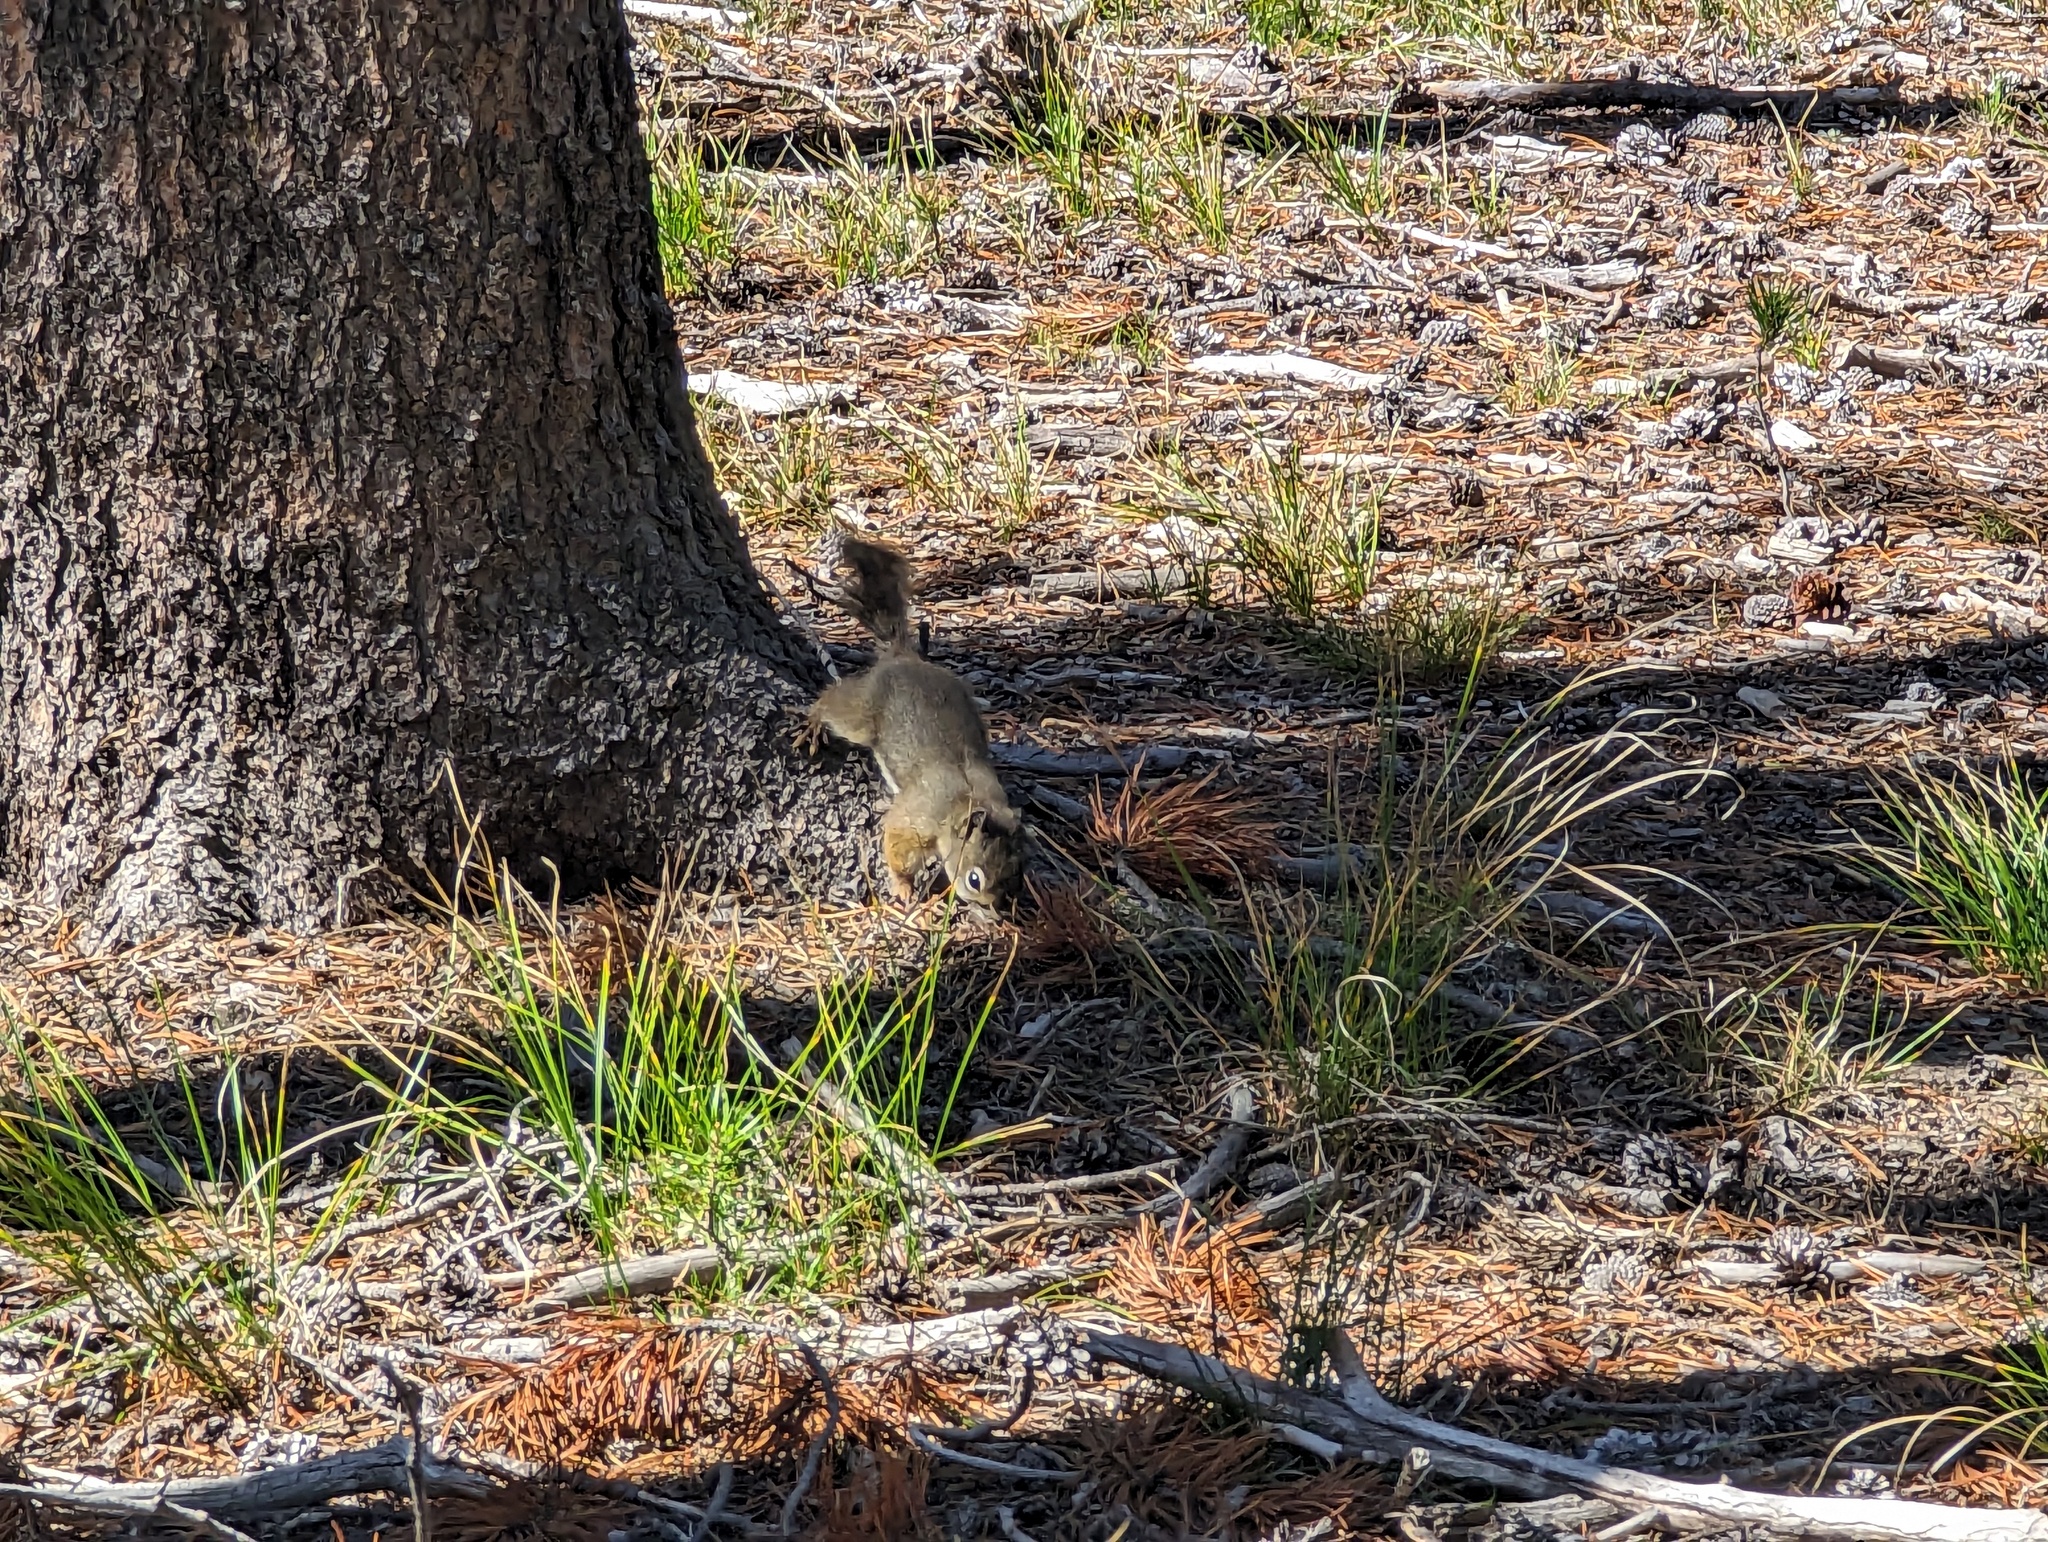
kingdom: Animalia
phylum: Chordata
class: Mammalia
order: Rodentia
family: Sciuridae
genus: Tamiasciurus
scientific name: Tamiasciurus hudsonicus
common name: Red squirrel
